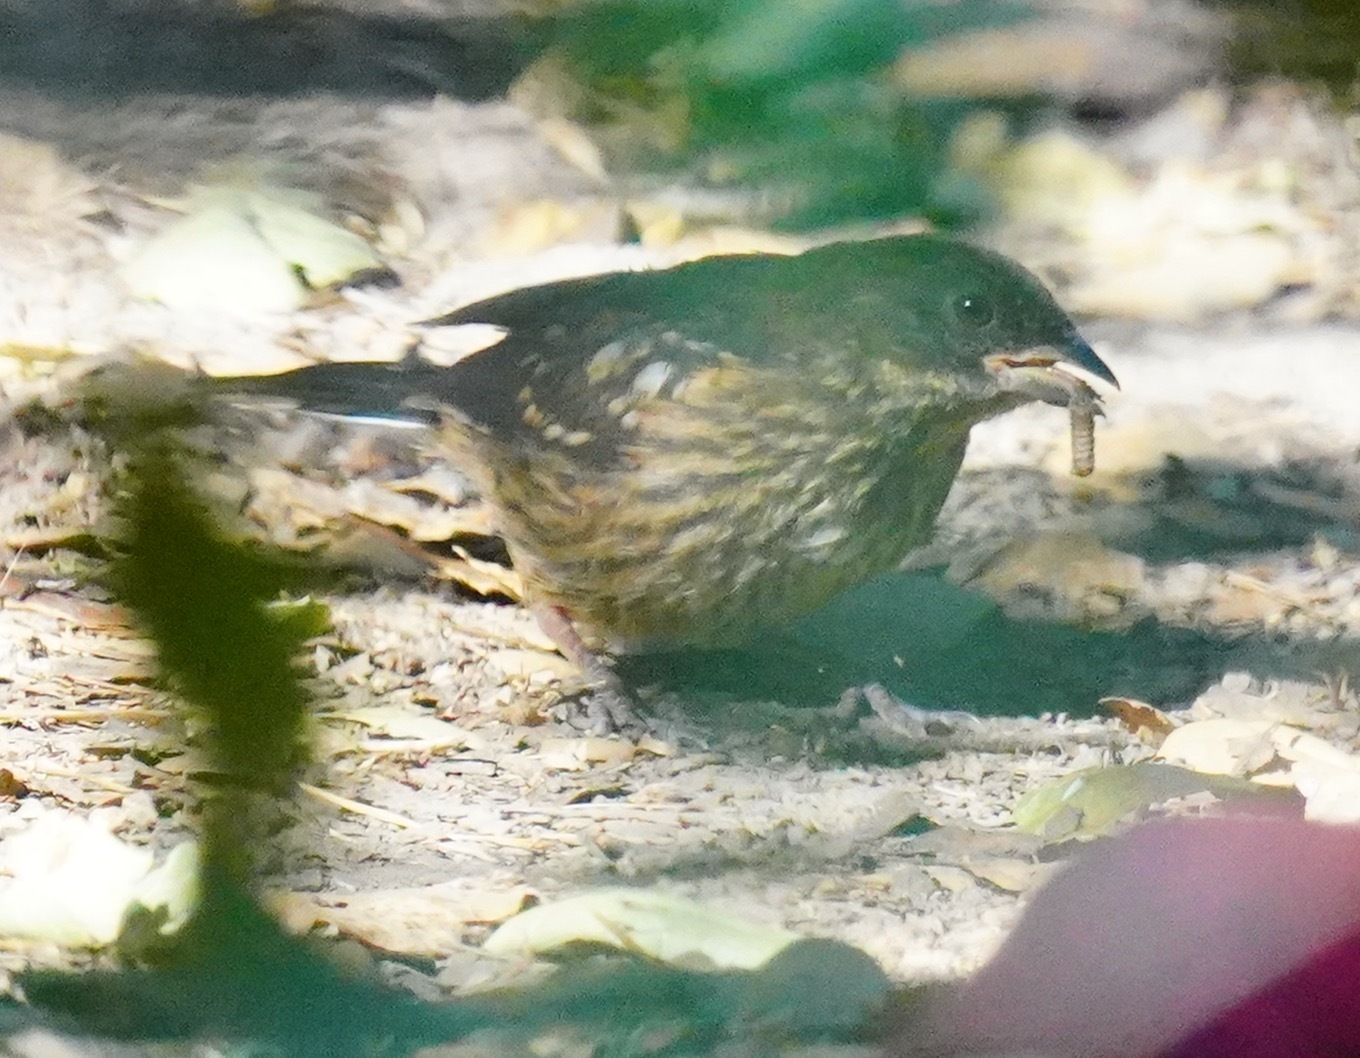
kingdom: Animalia
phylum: Chordata
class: Aves
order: Passeriformes
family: Passerellidae
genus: Pipilo
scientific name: Pipilo maculatus
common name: Spotted towhee
